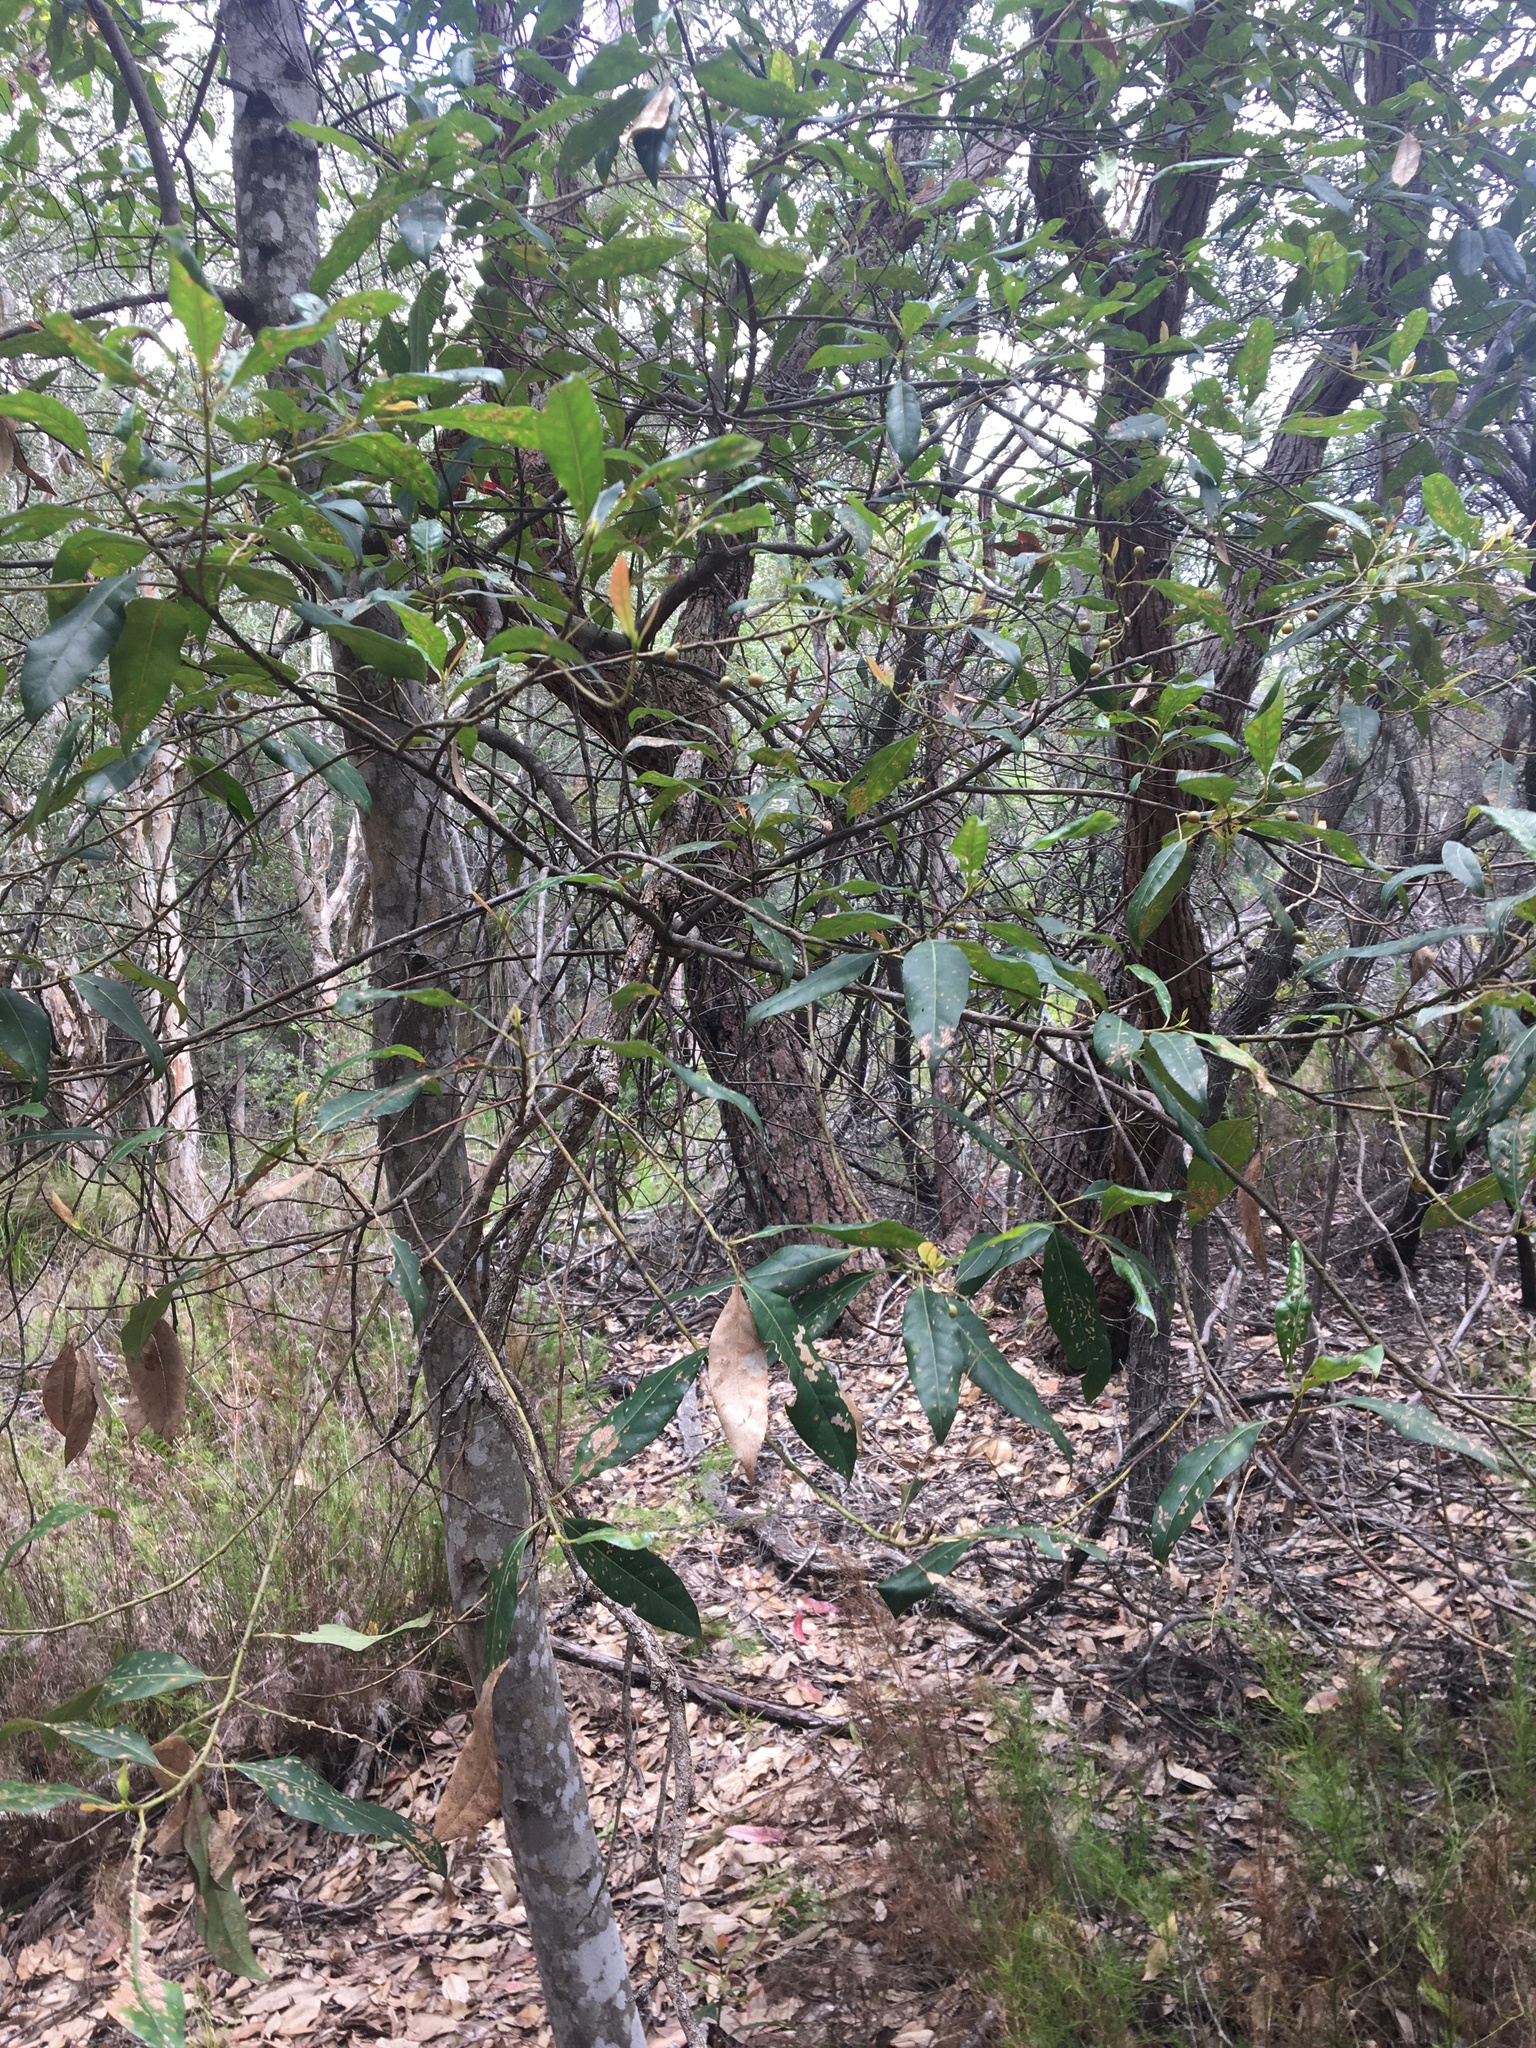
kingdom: Plantae
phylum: Tracheophyta
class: Magnoliopsida
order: Oxalidales
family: Elaeocarpaceae
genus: Elaeocarpus
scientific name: Elaeocarpus reticulatus
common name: Ash quandong
